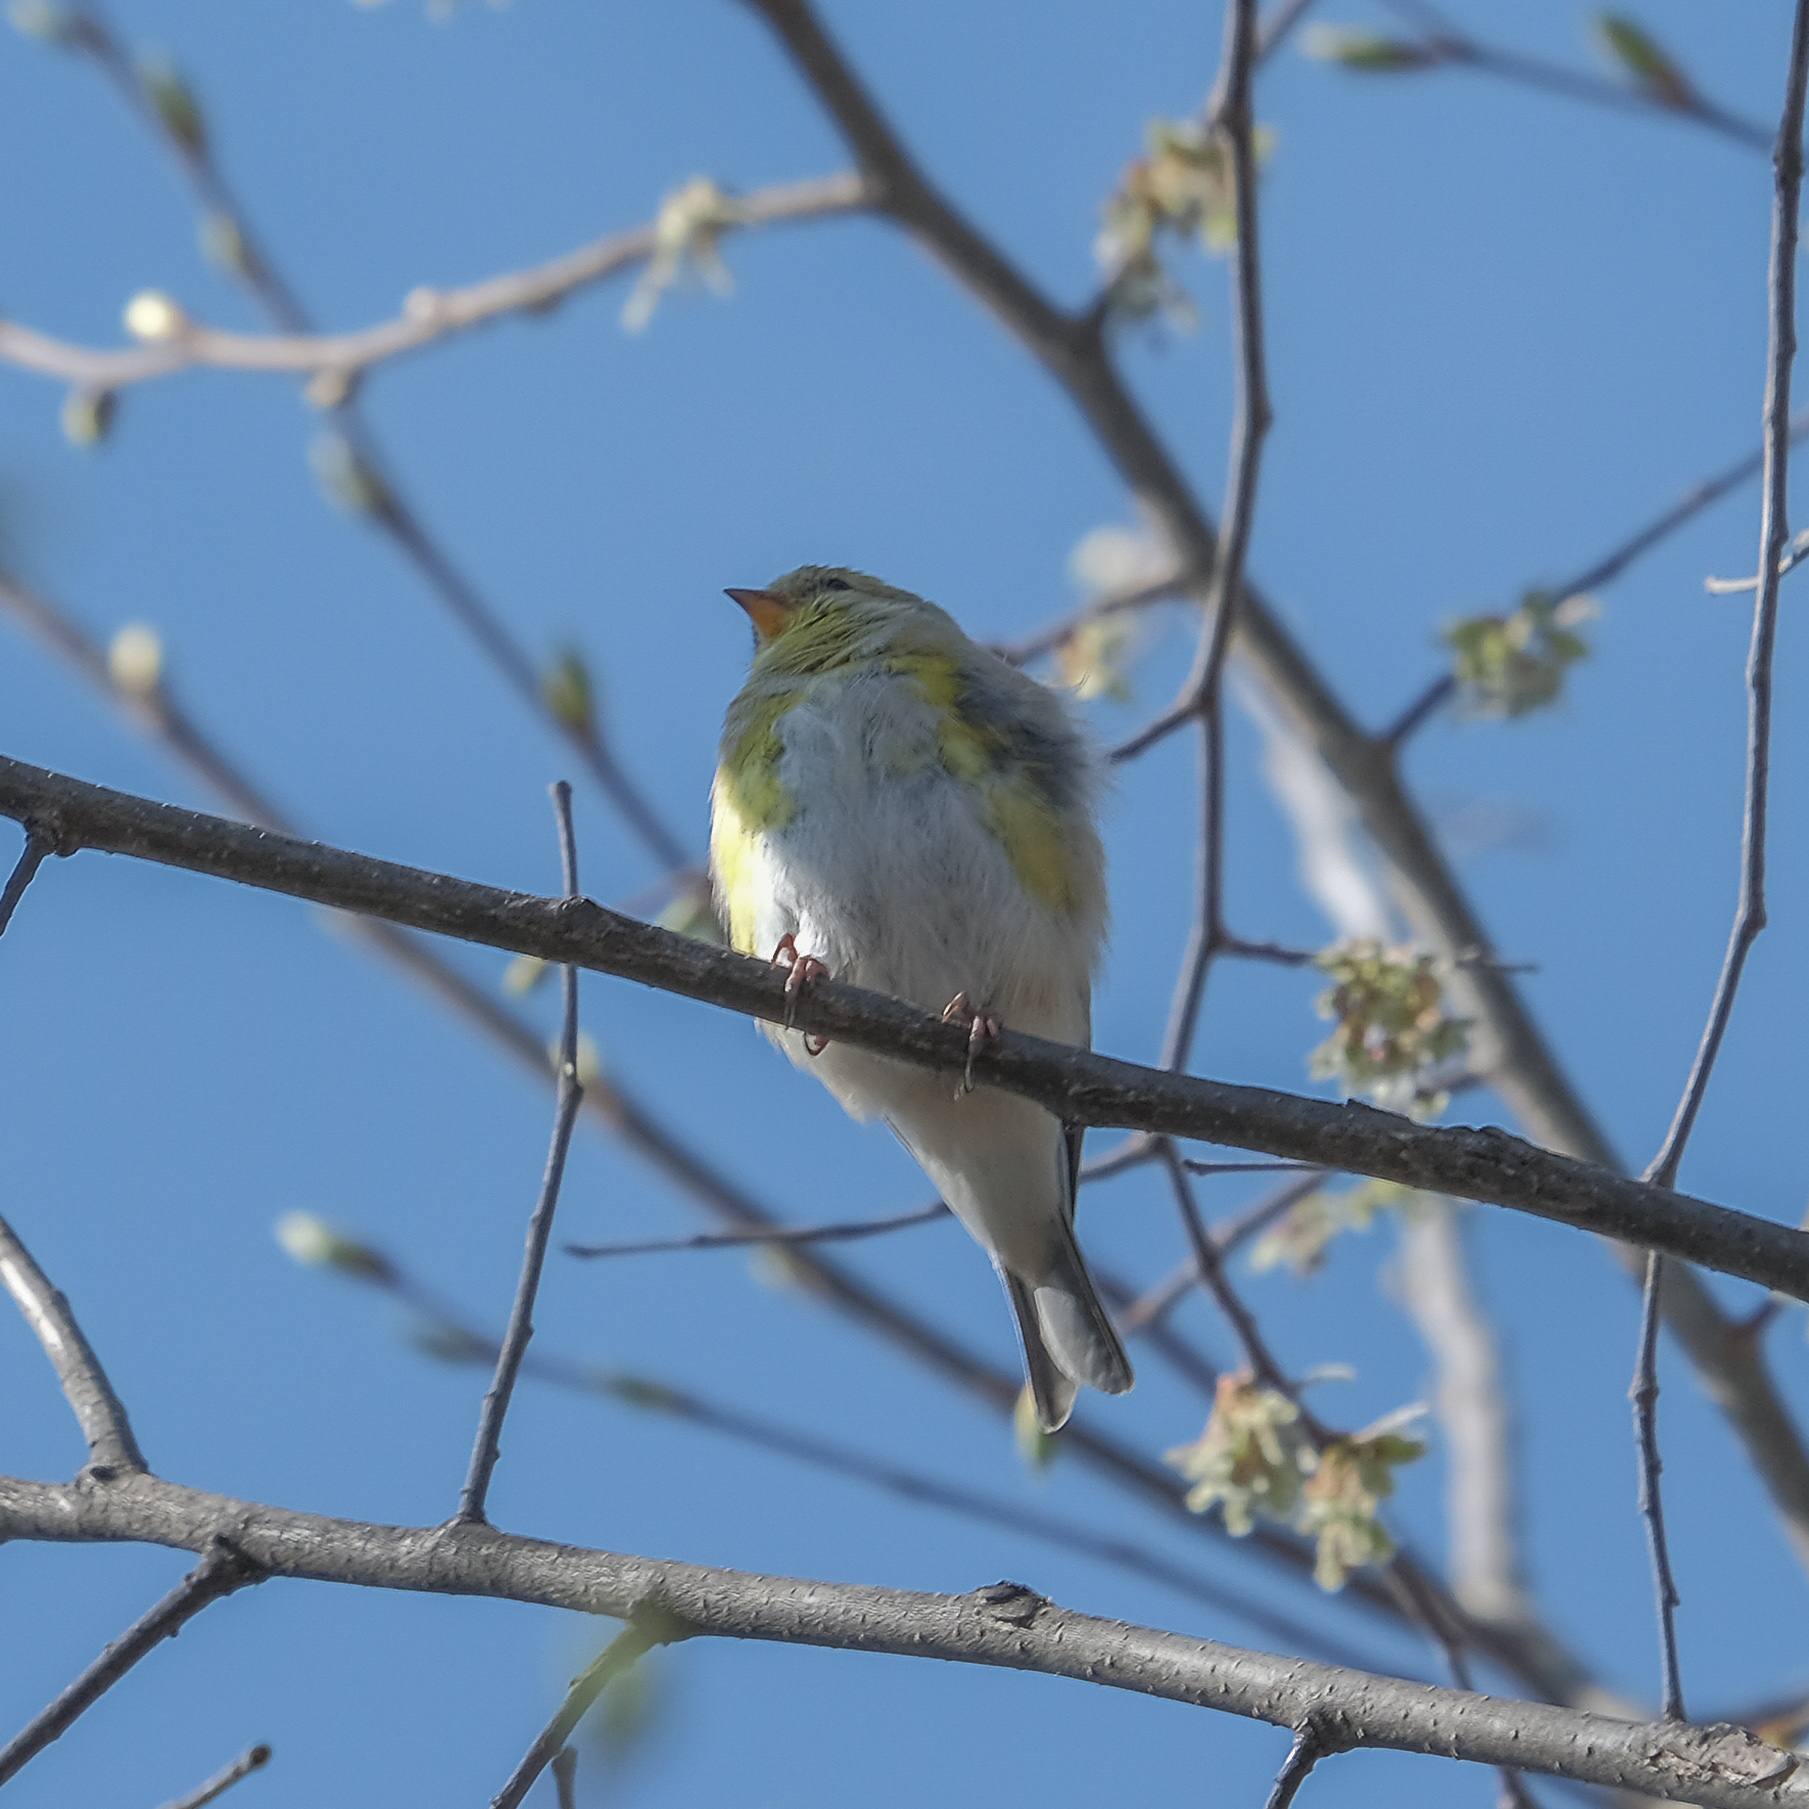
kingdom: Animalia
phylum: Chordata
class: Aves
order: Passeriformes
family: Fringillidae
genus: Spinus
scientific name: Spinus tristis
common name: American goldfinch
